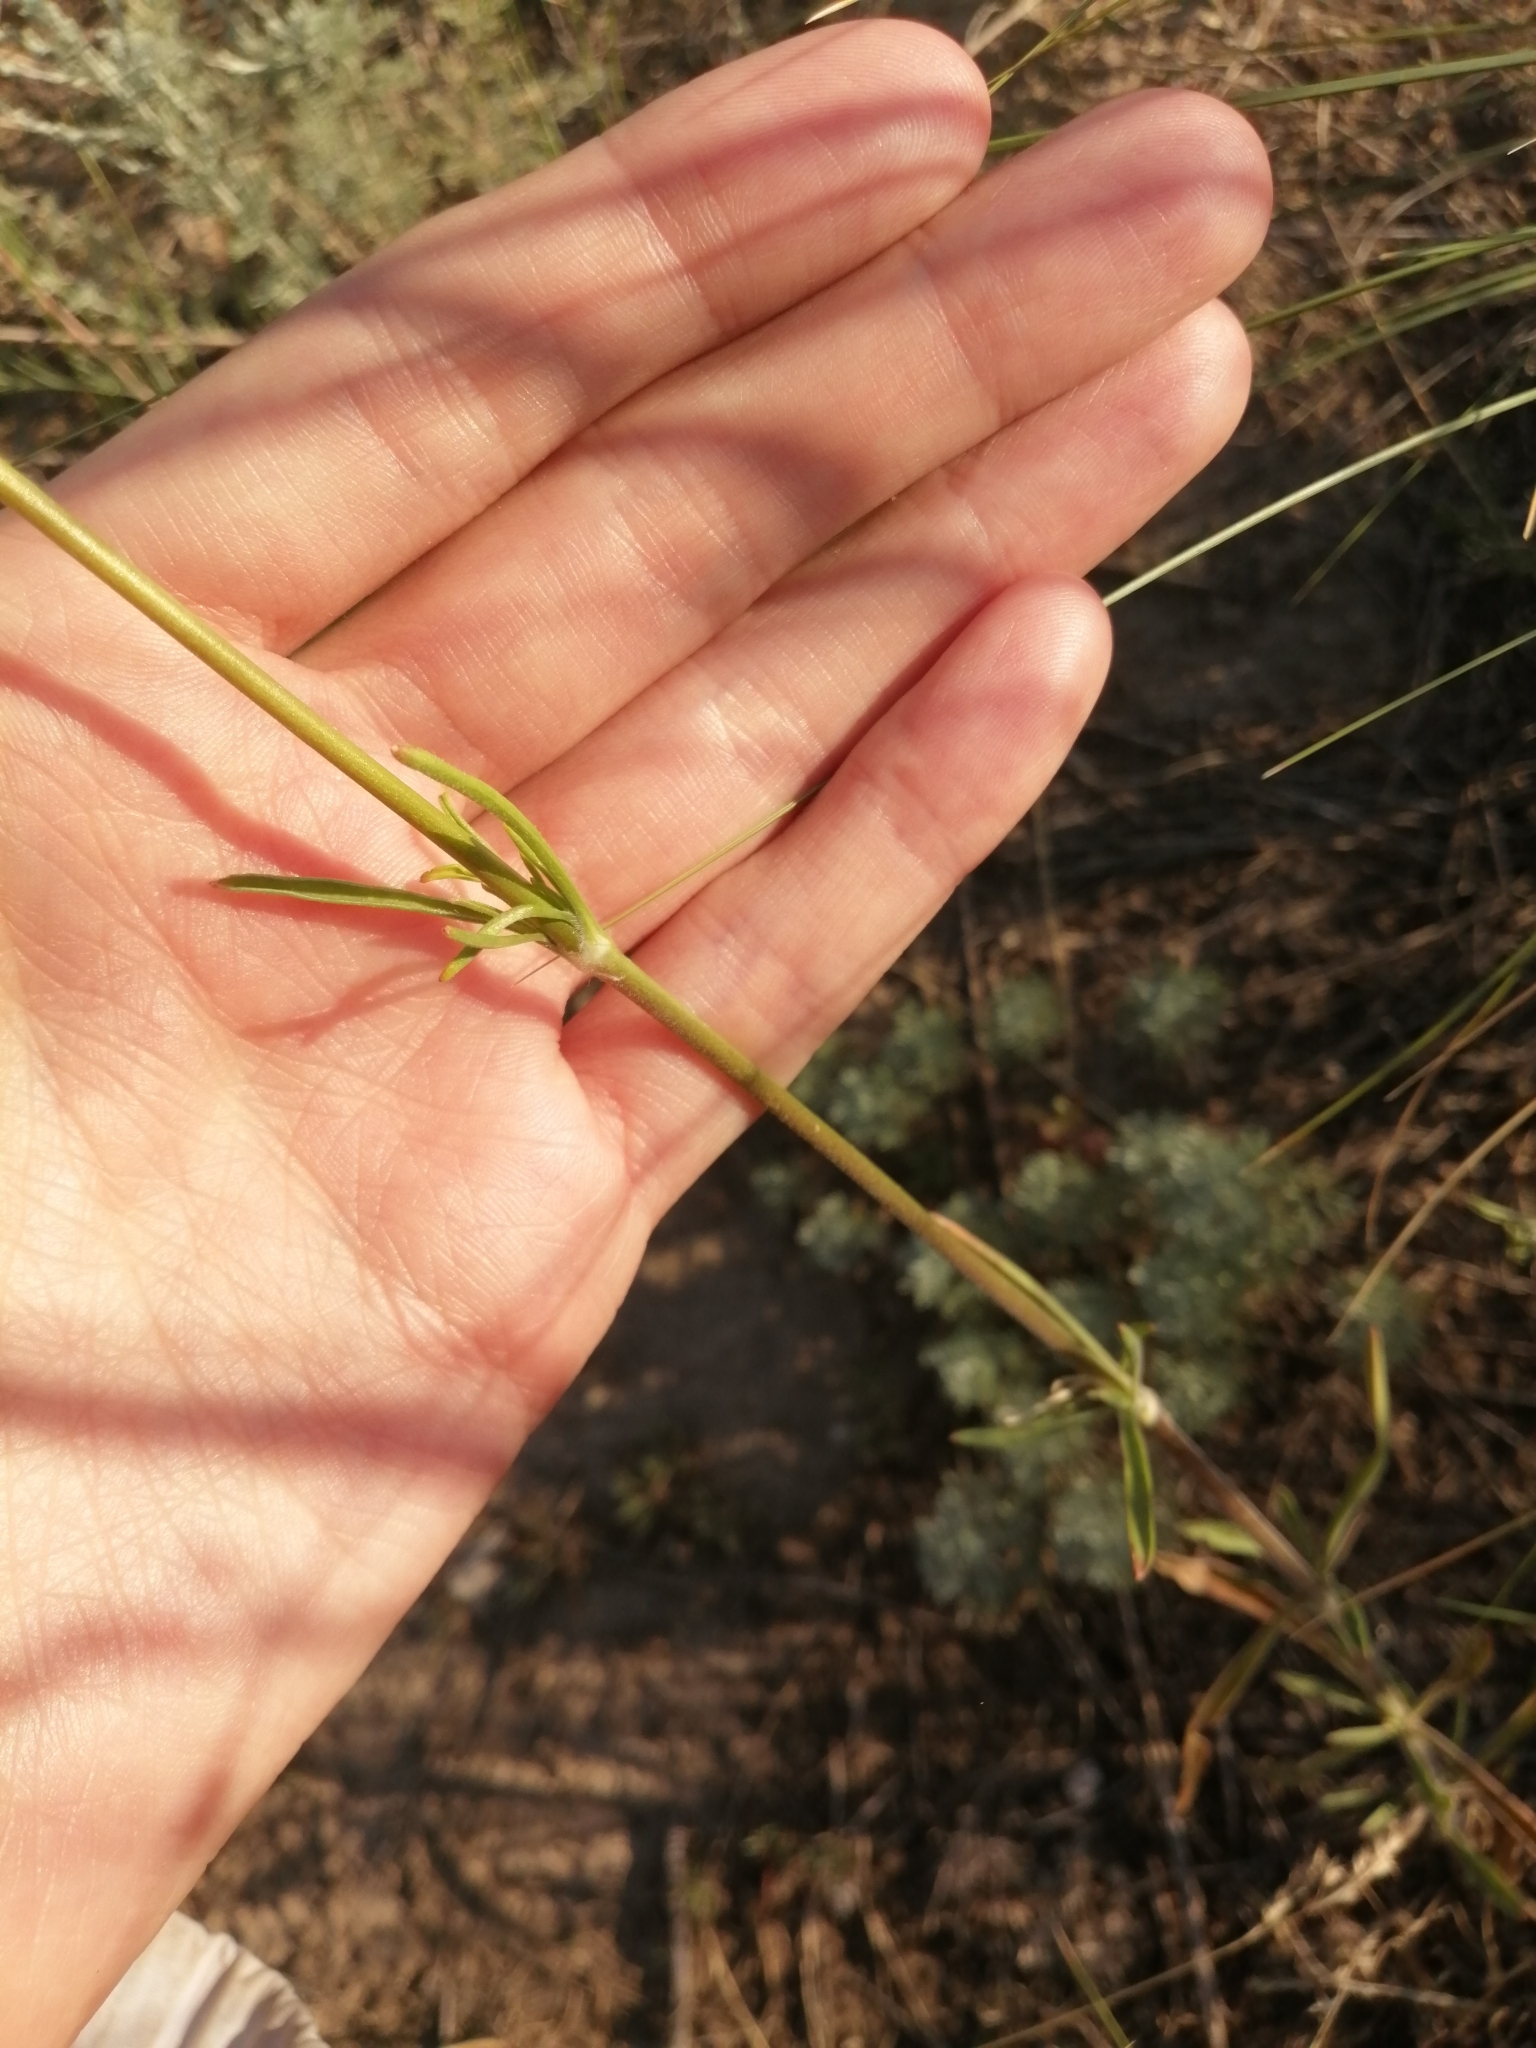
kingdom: Plantae
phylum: Tracheophyta
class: Magnoliopsida
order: Caryophyllales
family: Caryophyllaceae
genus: Silene
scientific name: Silene wolgensis
